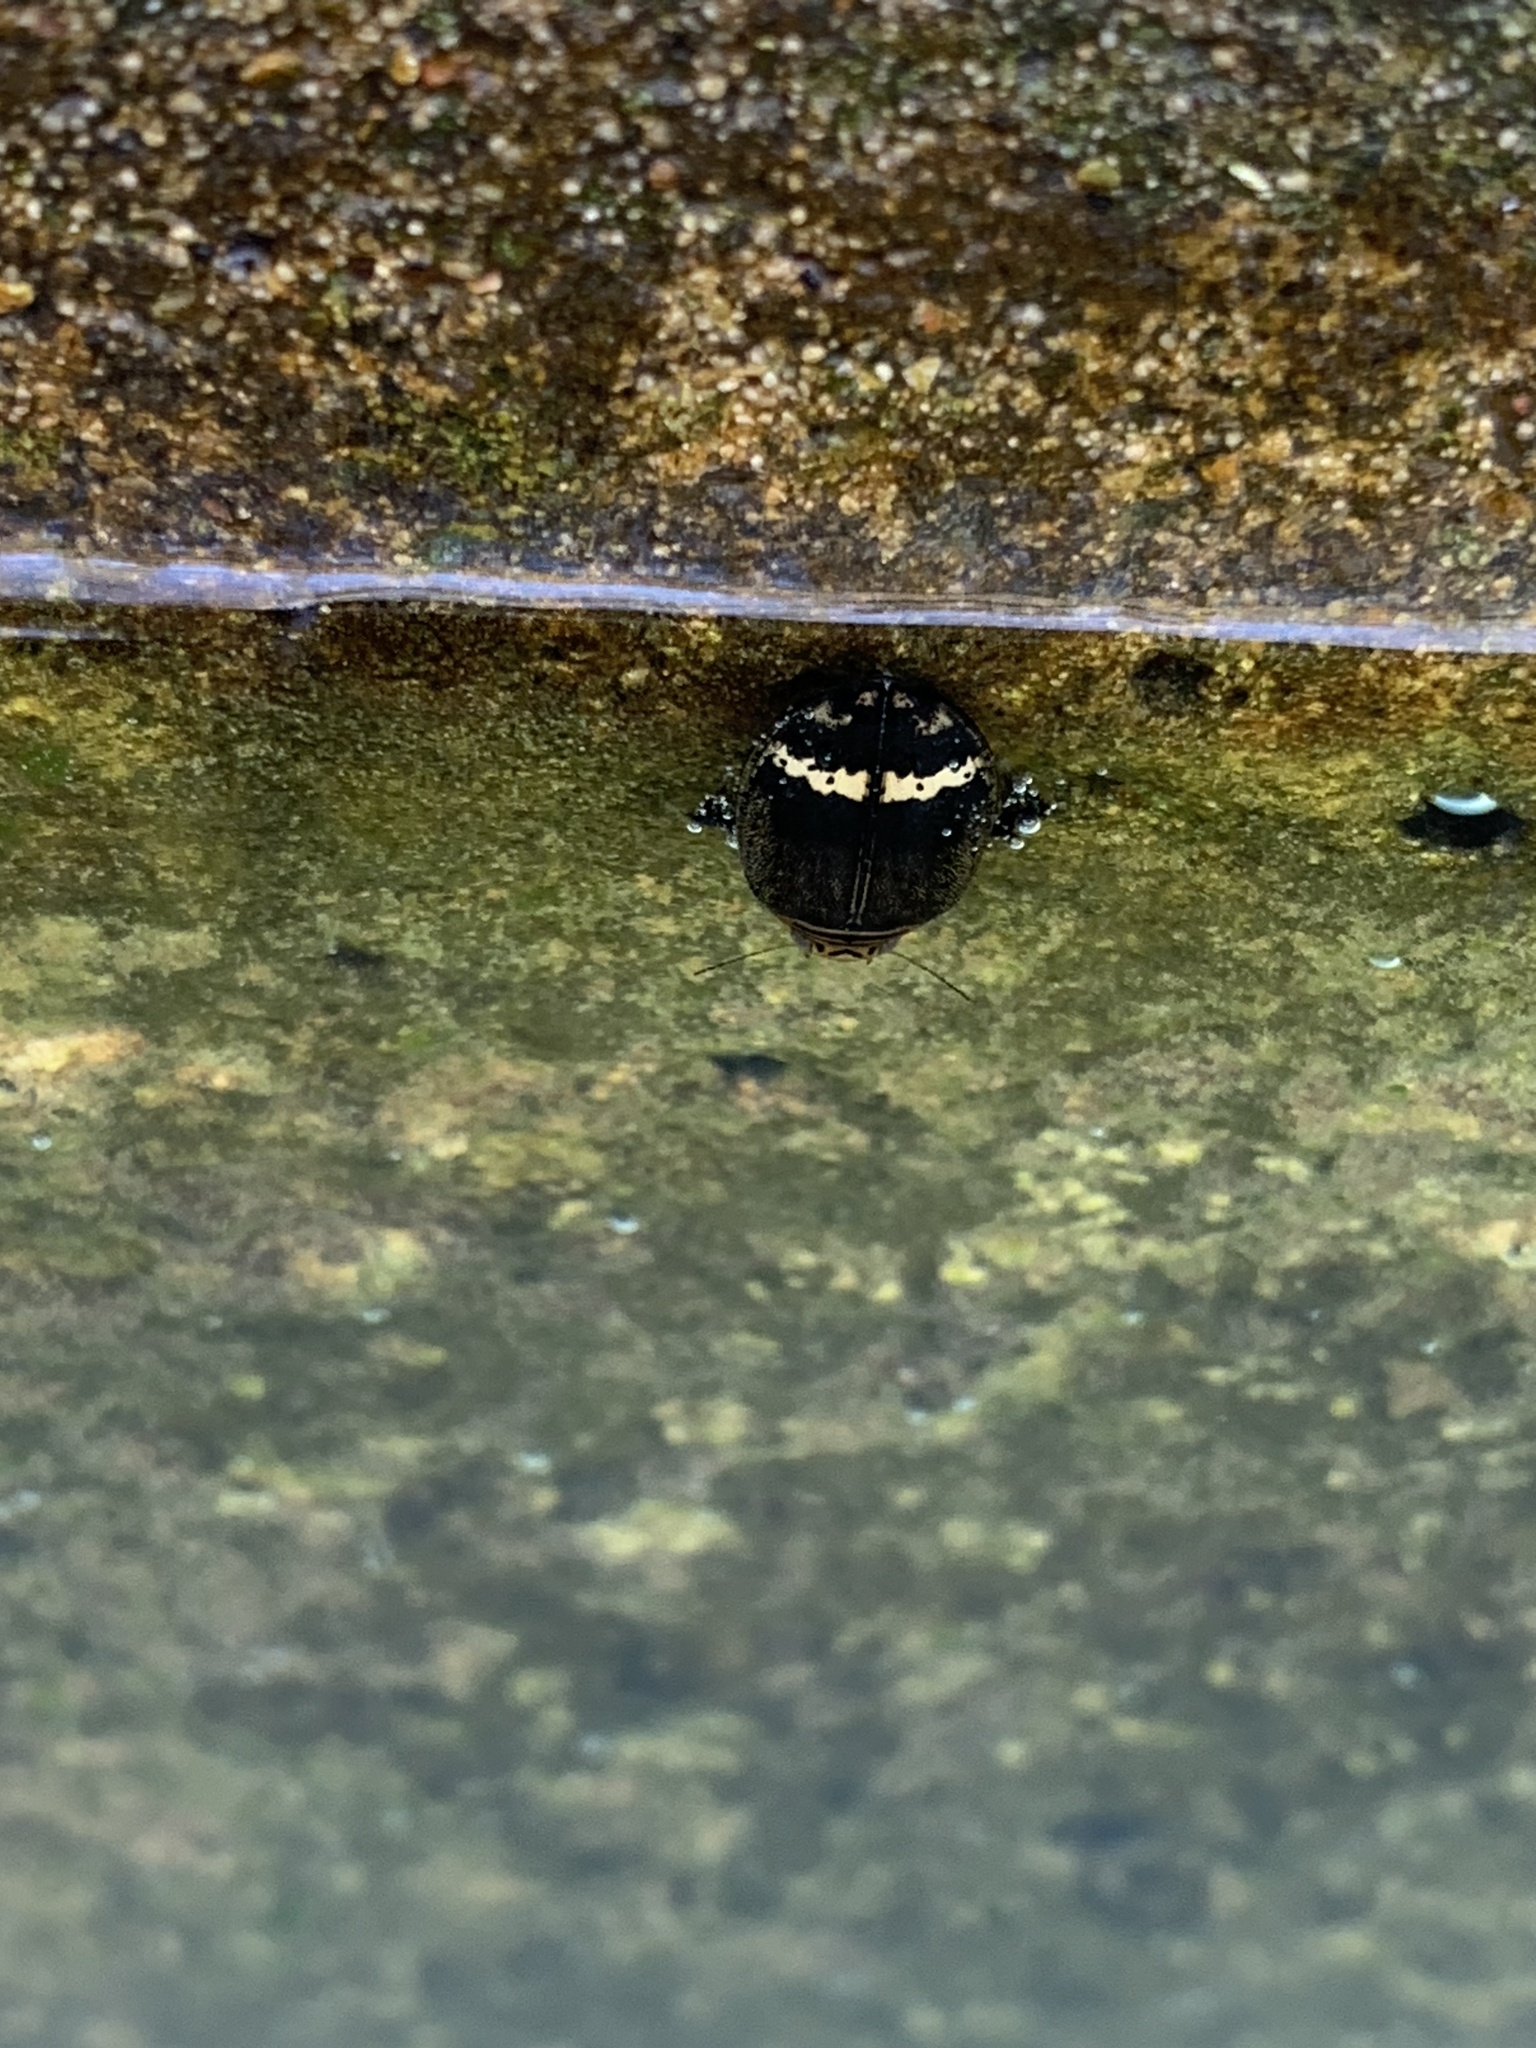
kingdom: Animalia
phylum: Arthropoda
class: Insecta
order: Coleoptera
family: Dytiscidae
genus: Acilius
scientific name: Acilius mediatus
